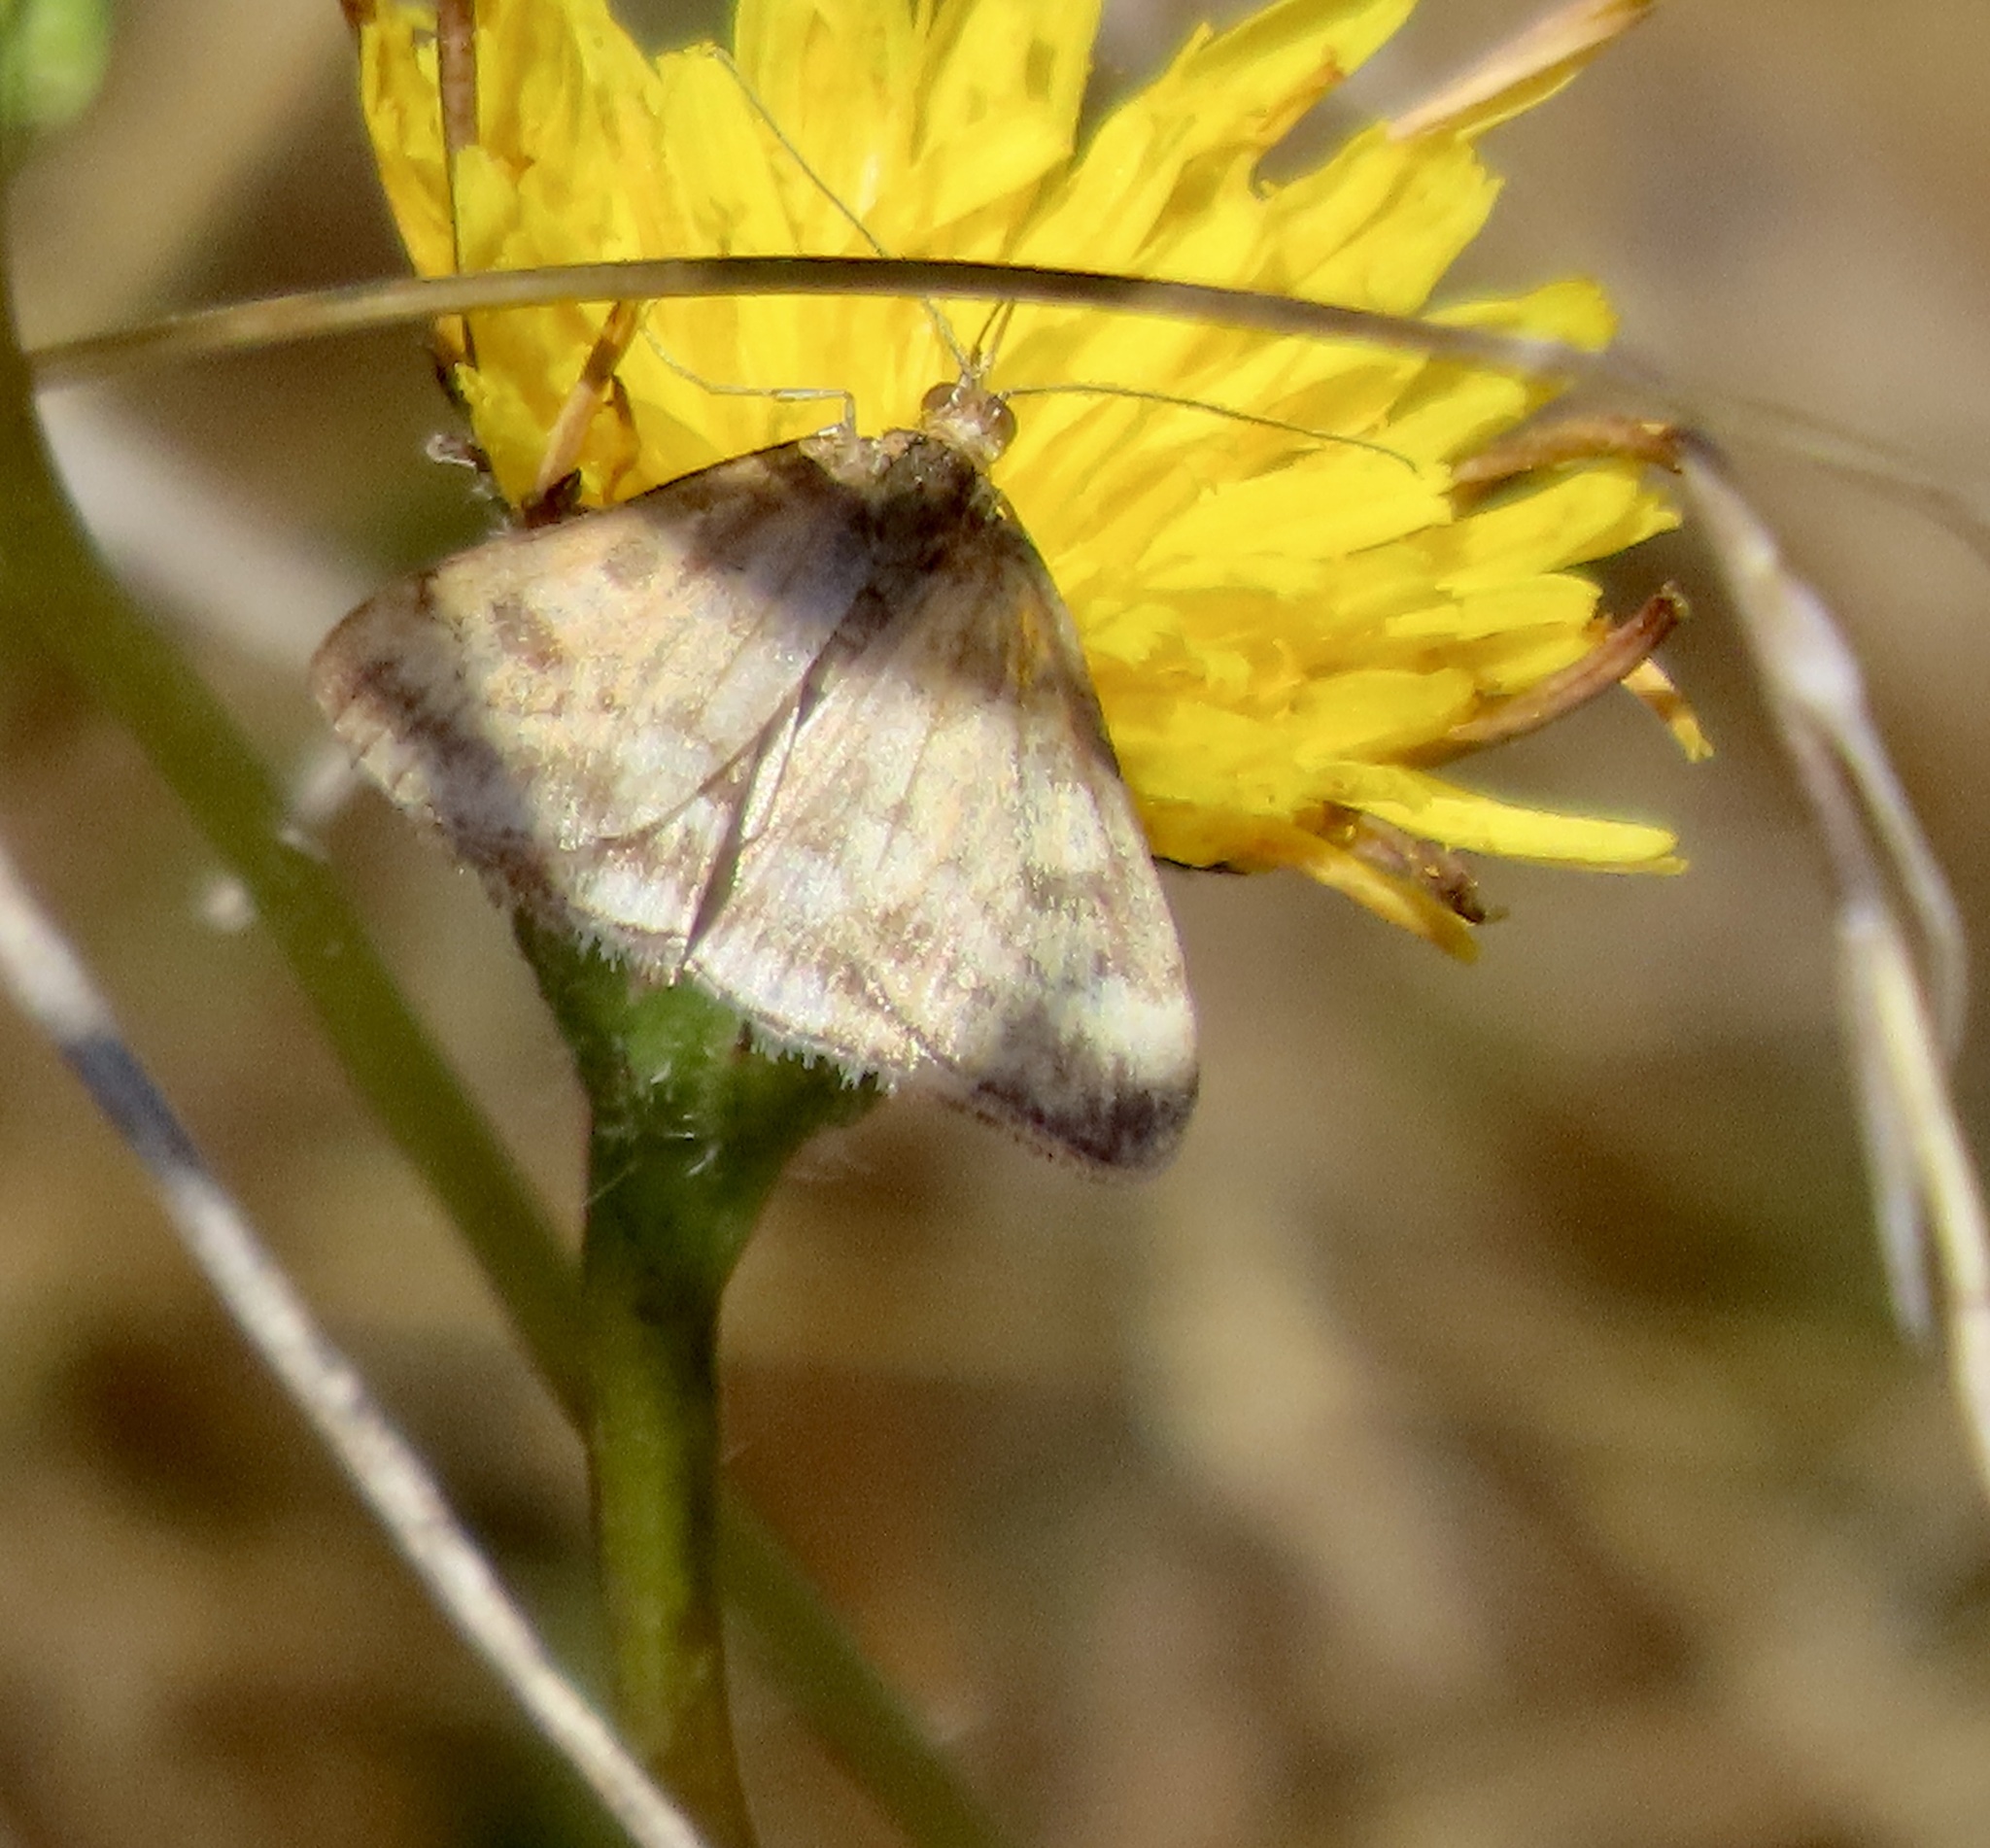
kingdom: Animalia
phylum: Arthropoda
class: Insecta
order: Lepidoptera
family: Crambidae
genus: Pyrausta
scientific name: Pyrausta subsequalis
